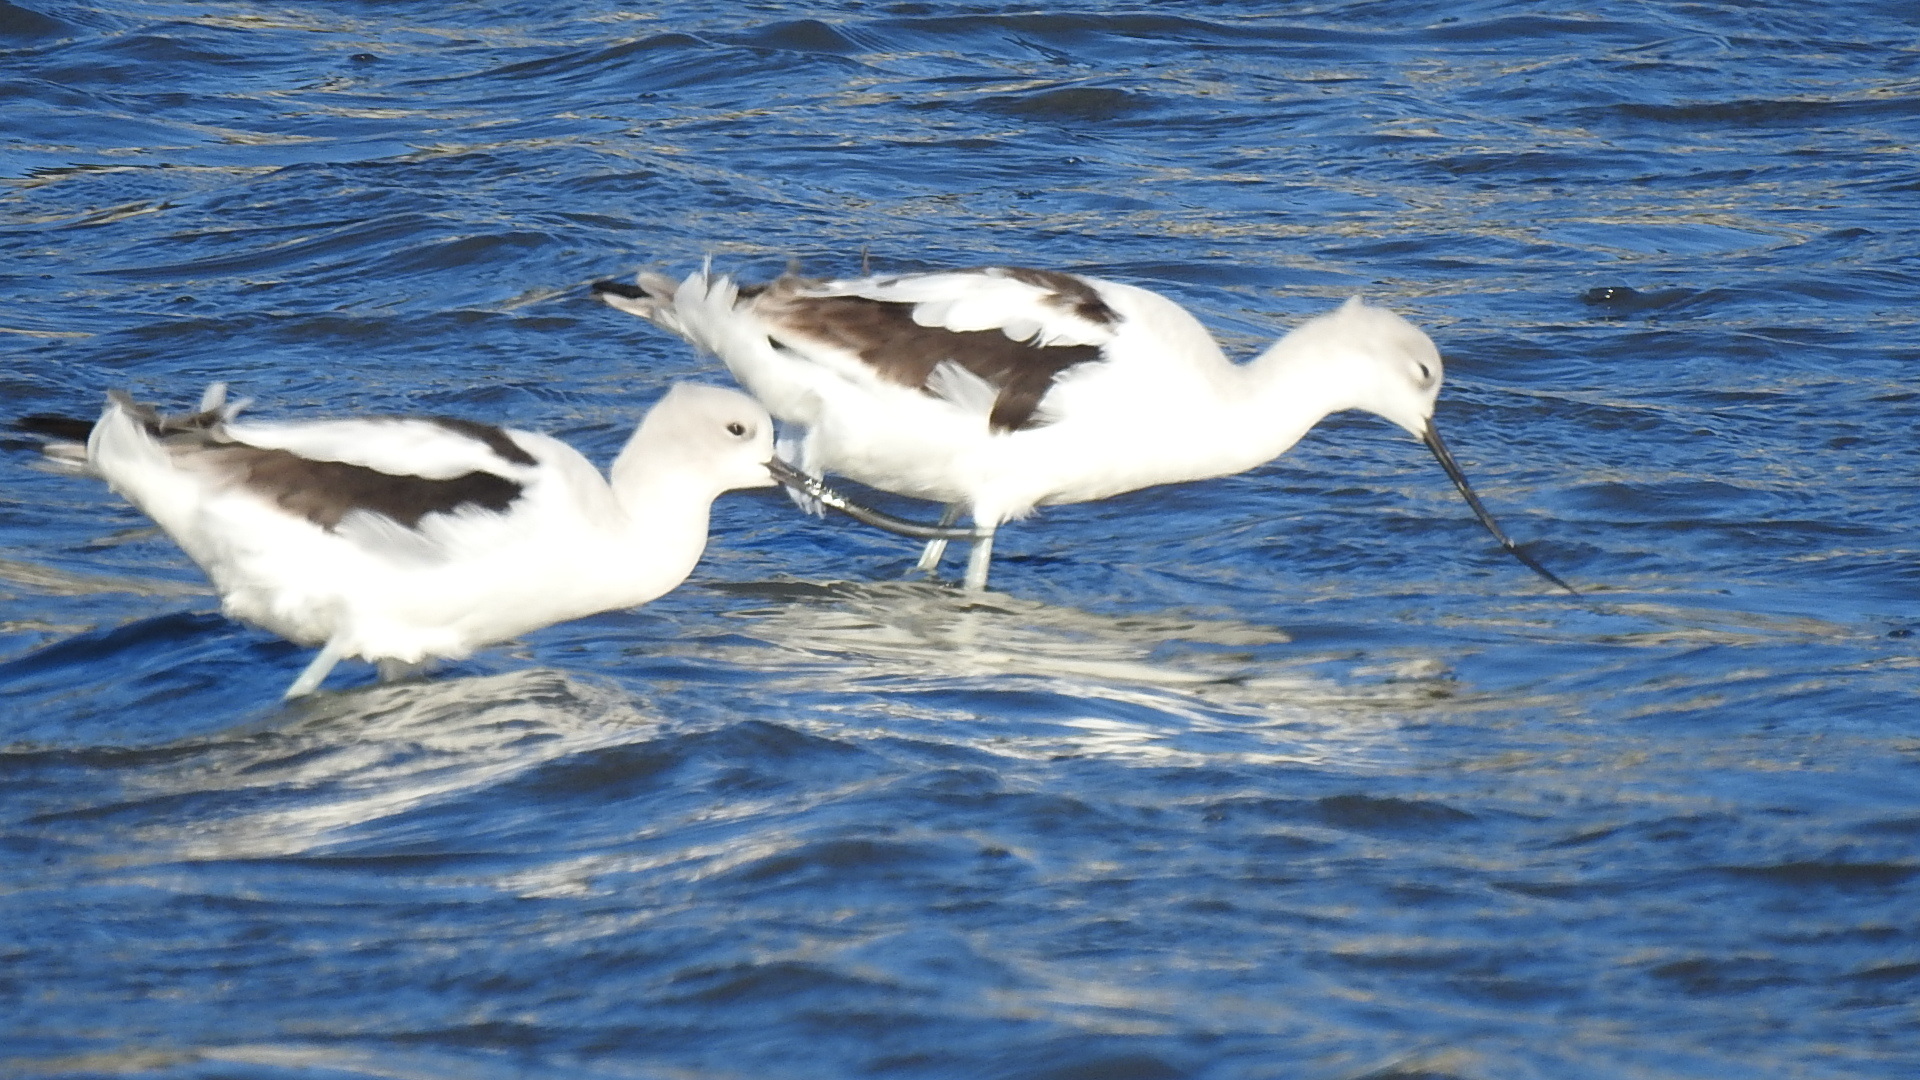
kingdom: Animalia
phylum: Chordata
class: Aves
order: Charadriiformes
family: Recurvirostridae
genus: Recurvirostra
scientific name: Recurvirostra americana
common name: American avocet
